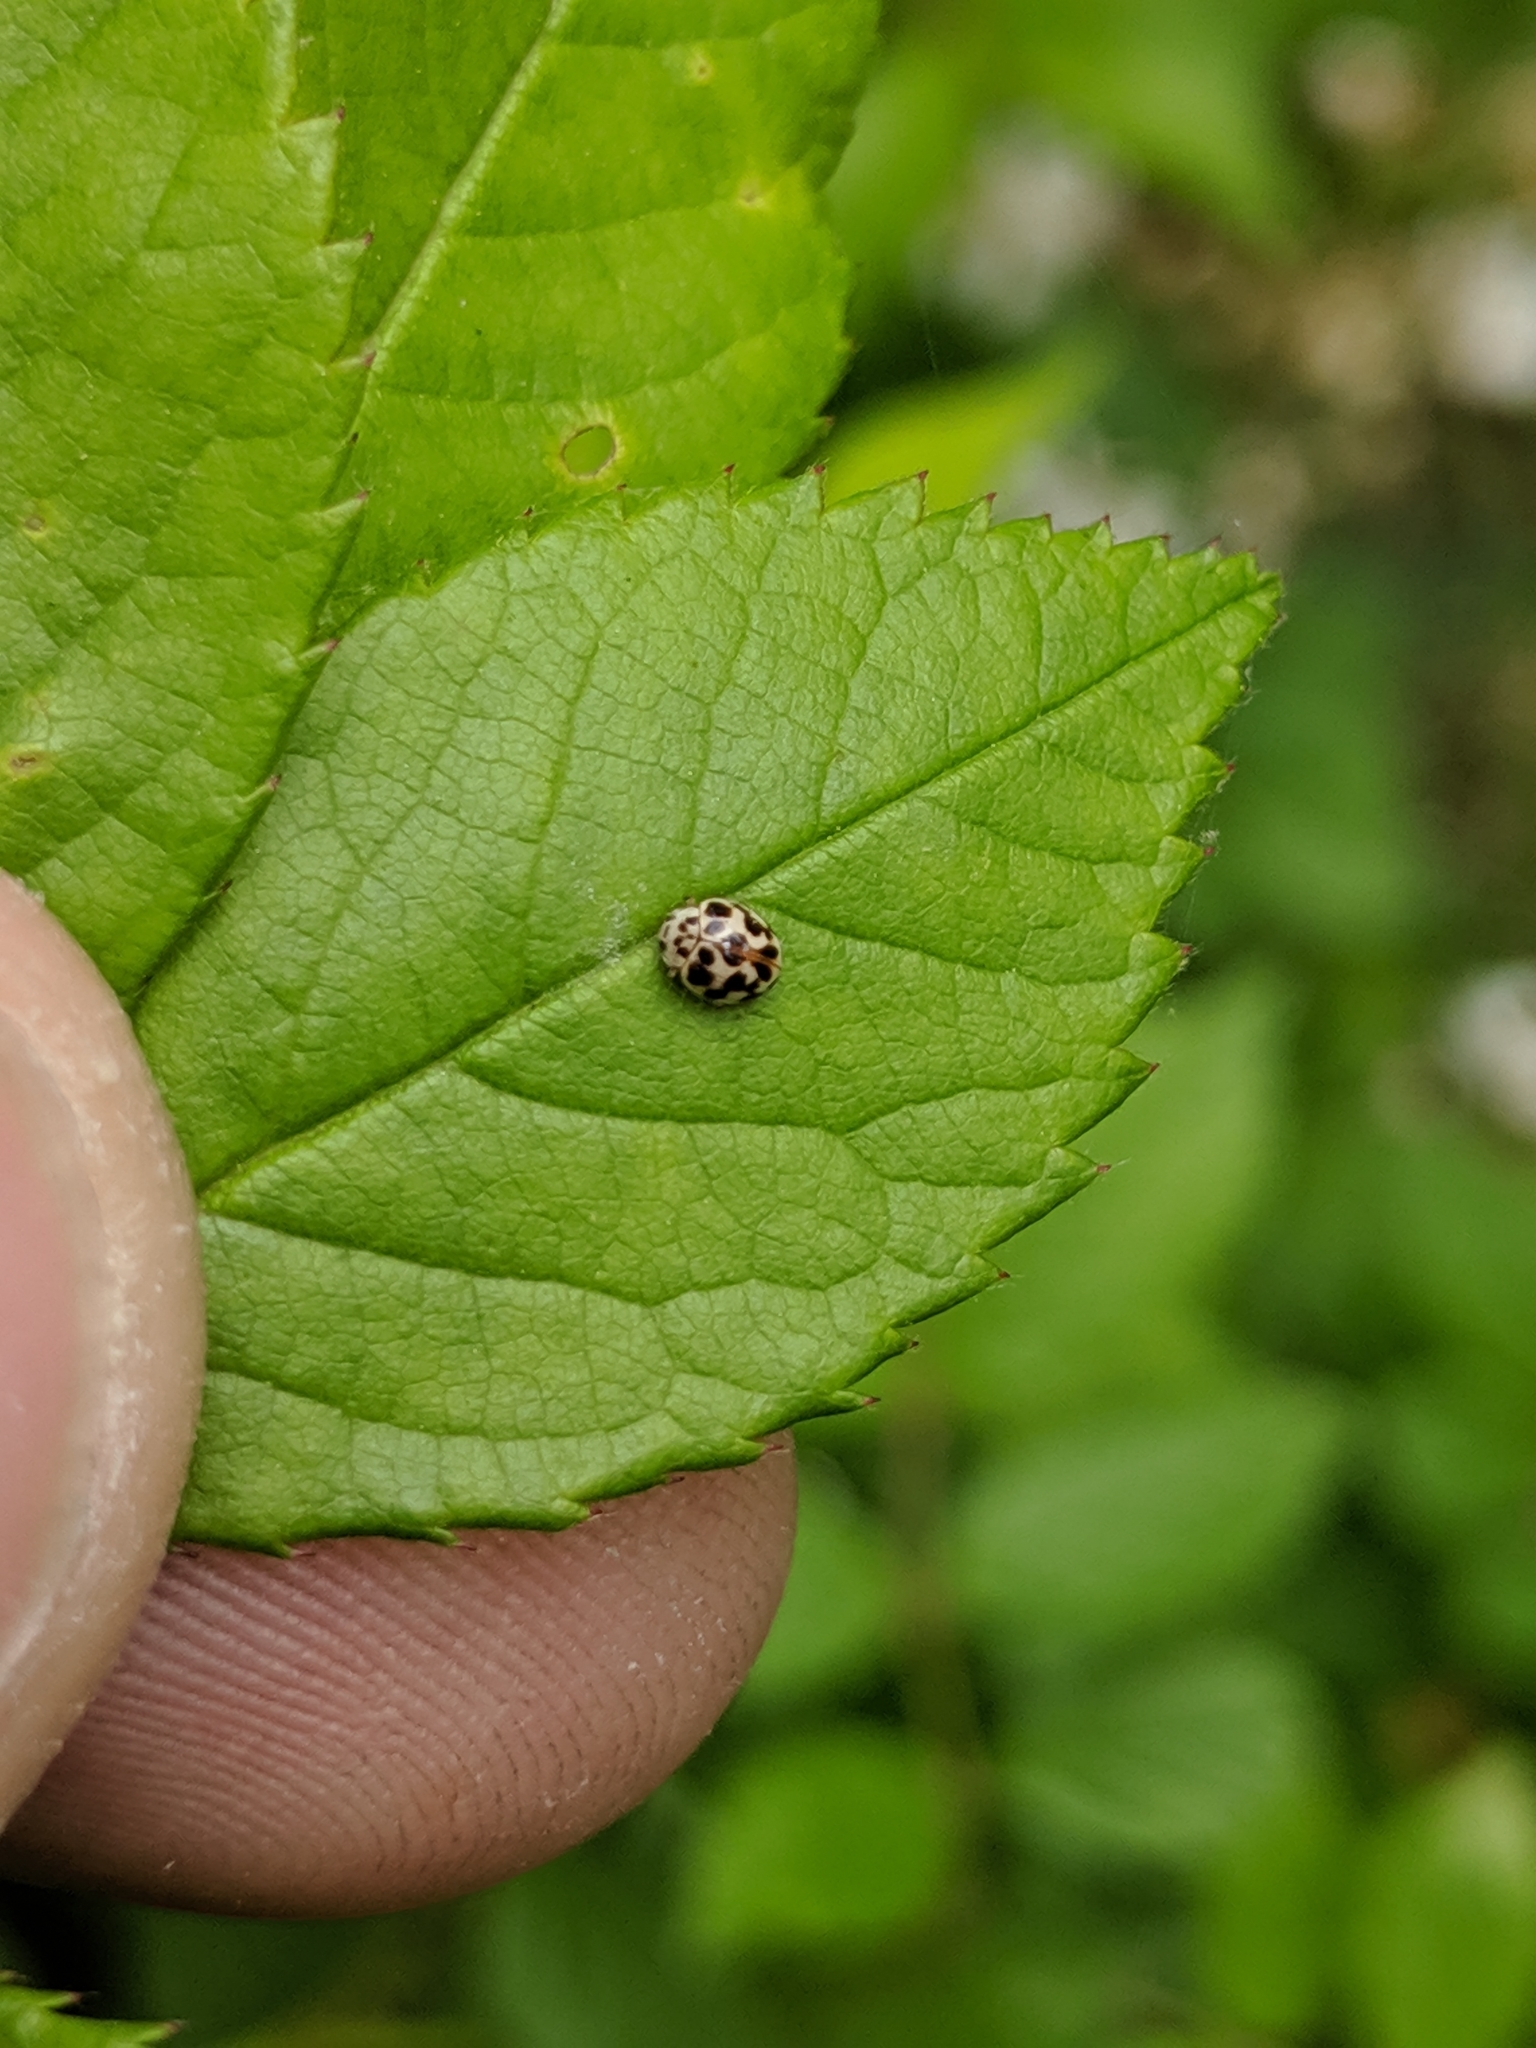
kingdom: Animalia
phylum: Arthropoda
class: Insecta
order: Coleoptera
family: Coccinellidae
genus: Psyllobora
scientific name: Psyllobora vigintimaculata
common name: Ladybird beetle
